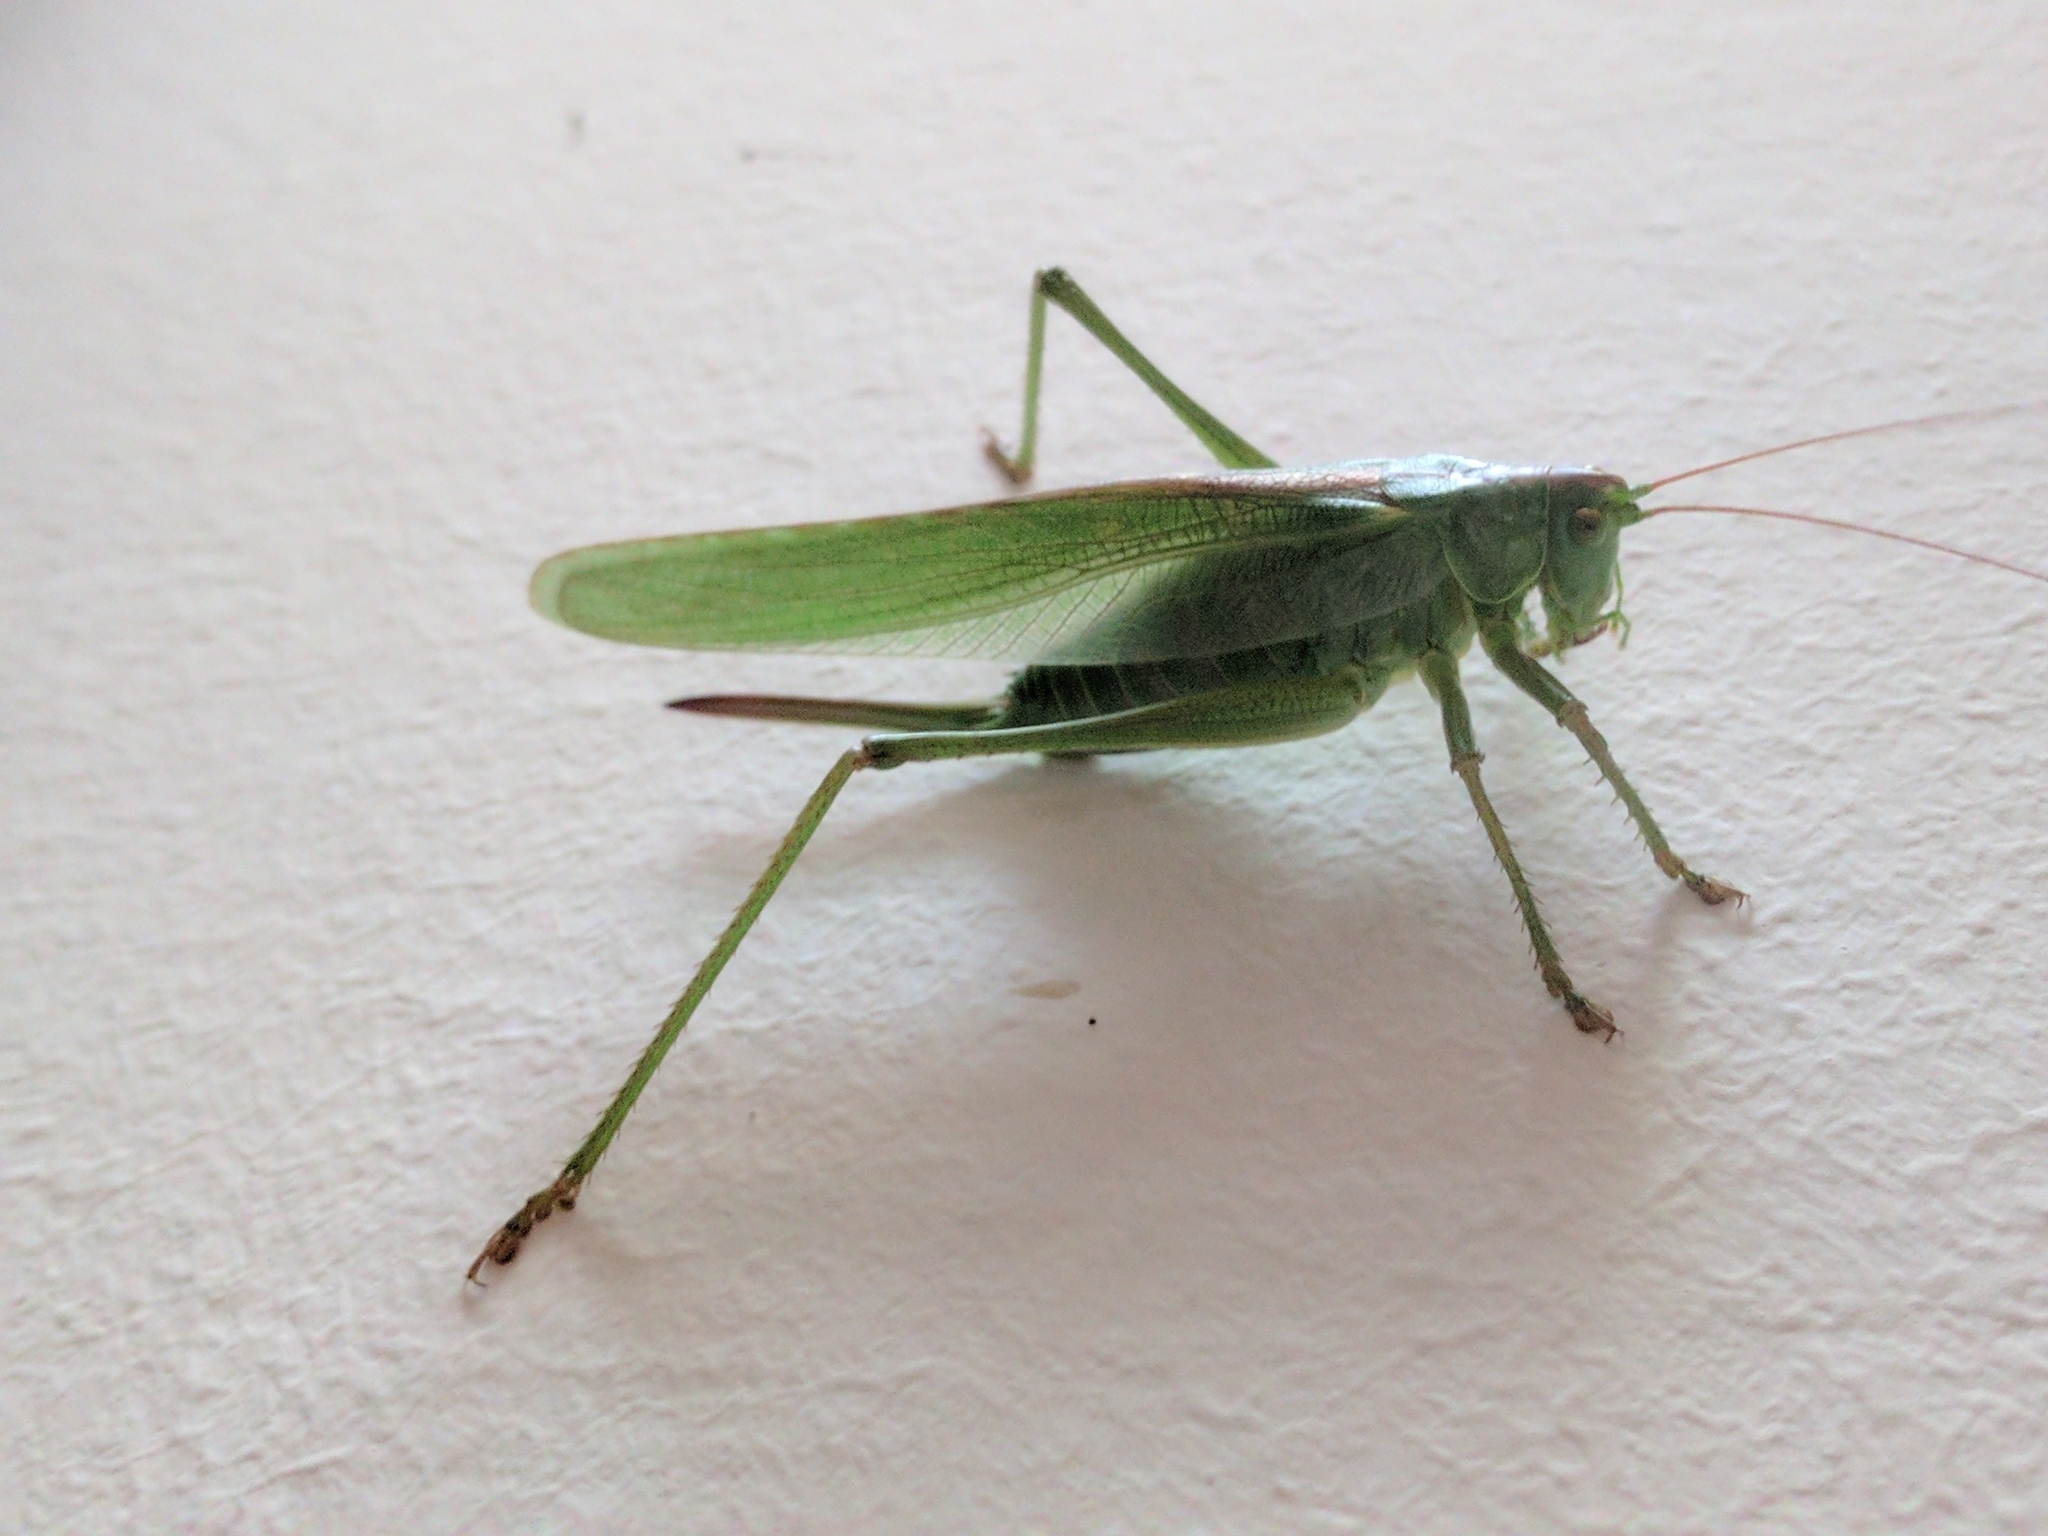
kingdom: Animalia
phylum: Arthropoda
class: Insecta
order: Orthoptera
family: Tettigoniidae
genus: Tettigonia
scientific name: Tettigonia viridissima
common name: Great green bush-cricket
